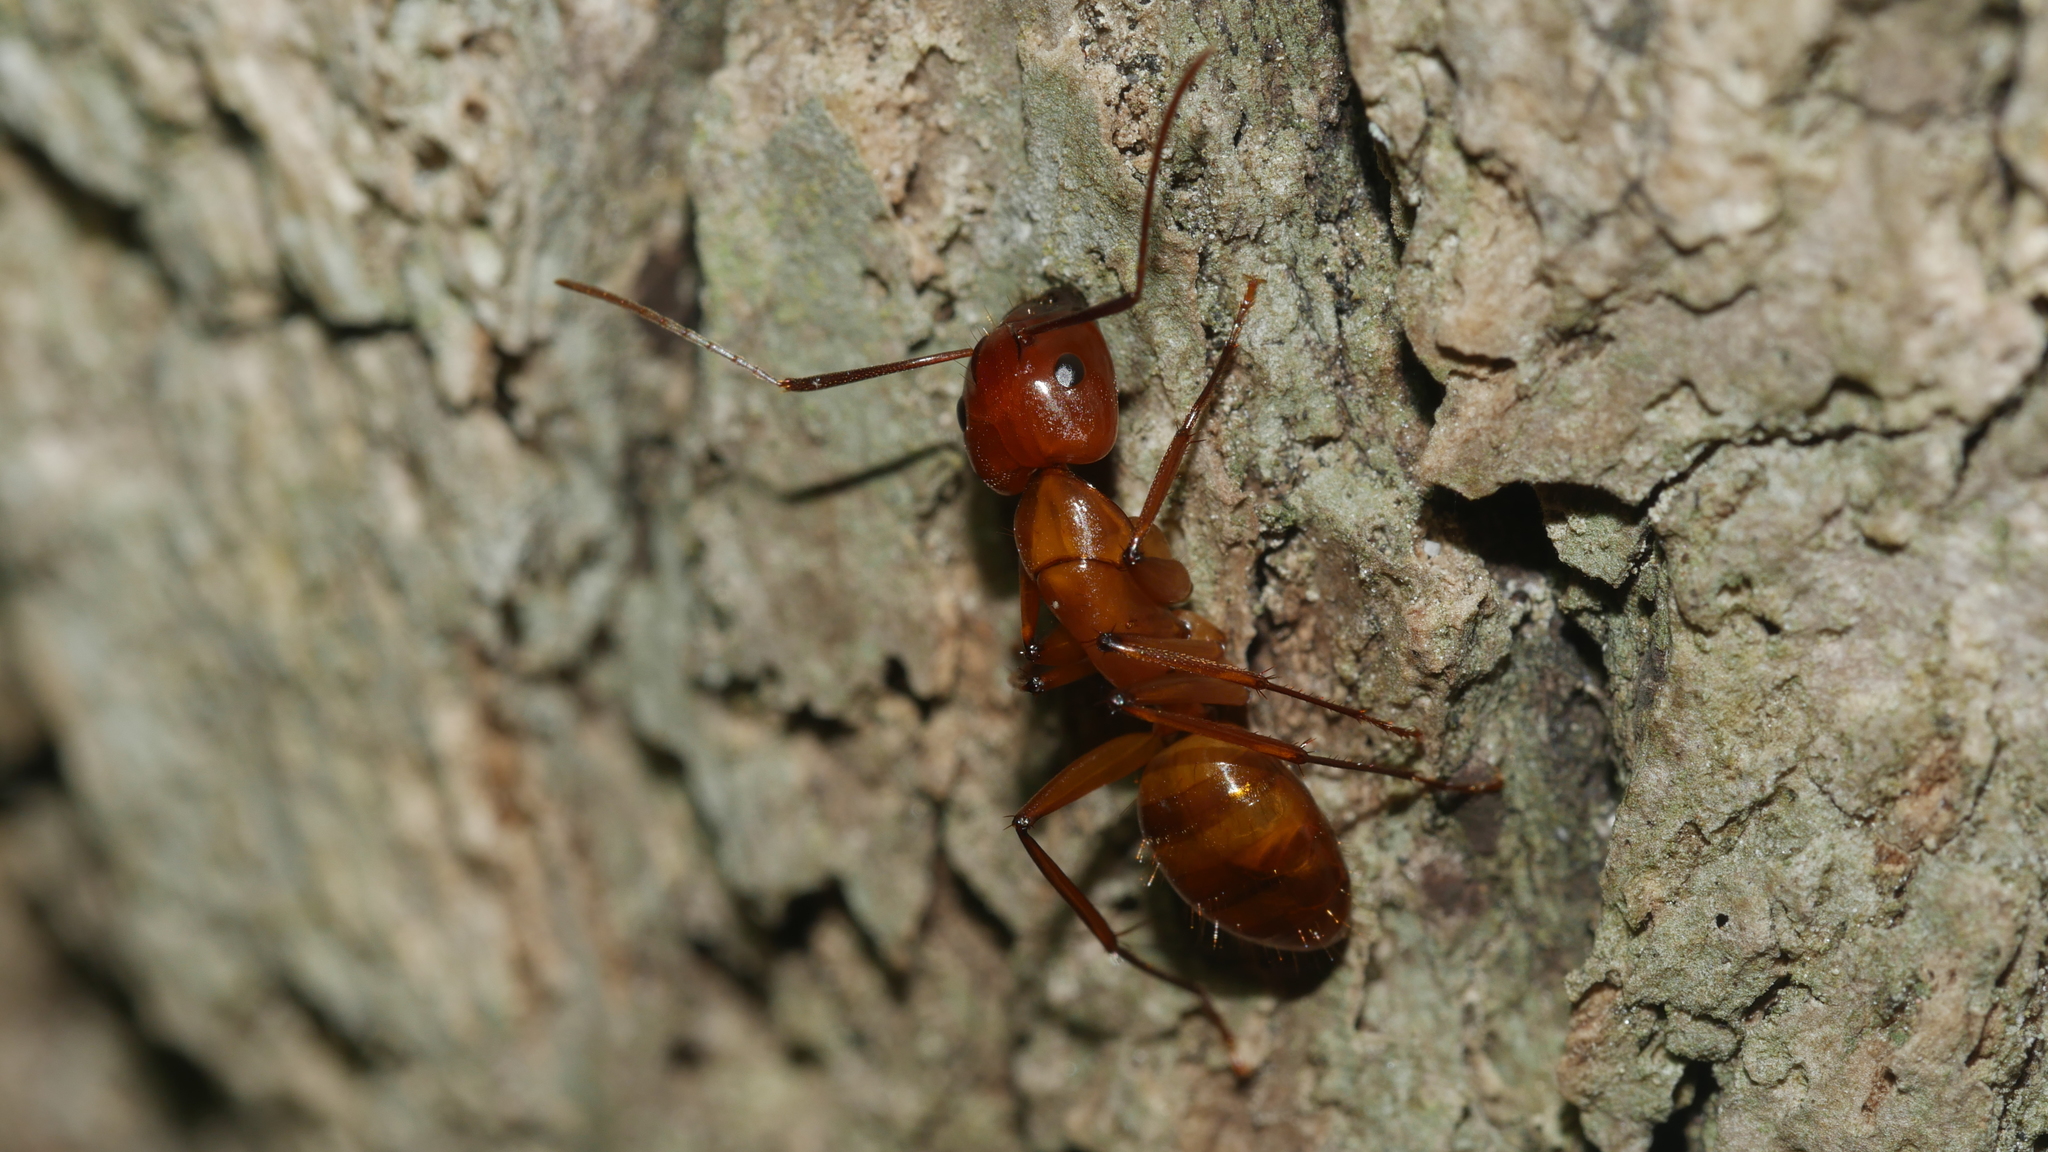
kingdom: Animalia
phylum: Arthropoda
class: Insecta
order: Hymenoptera
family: Formicidae
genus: Camponotus
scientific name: Camponotus castaneus
